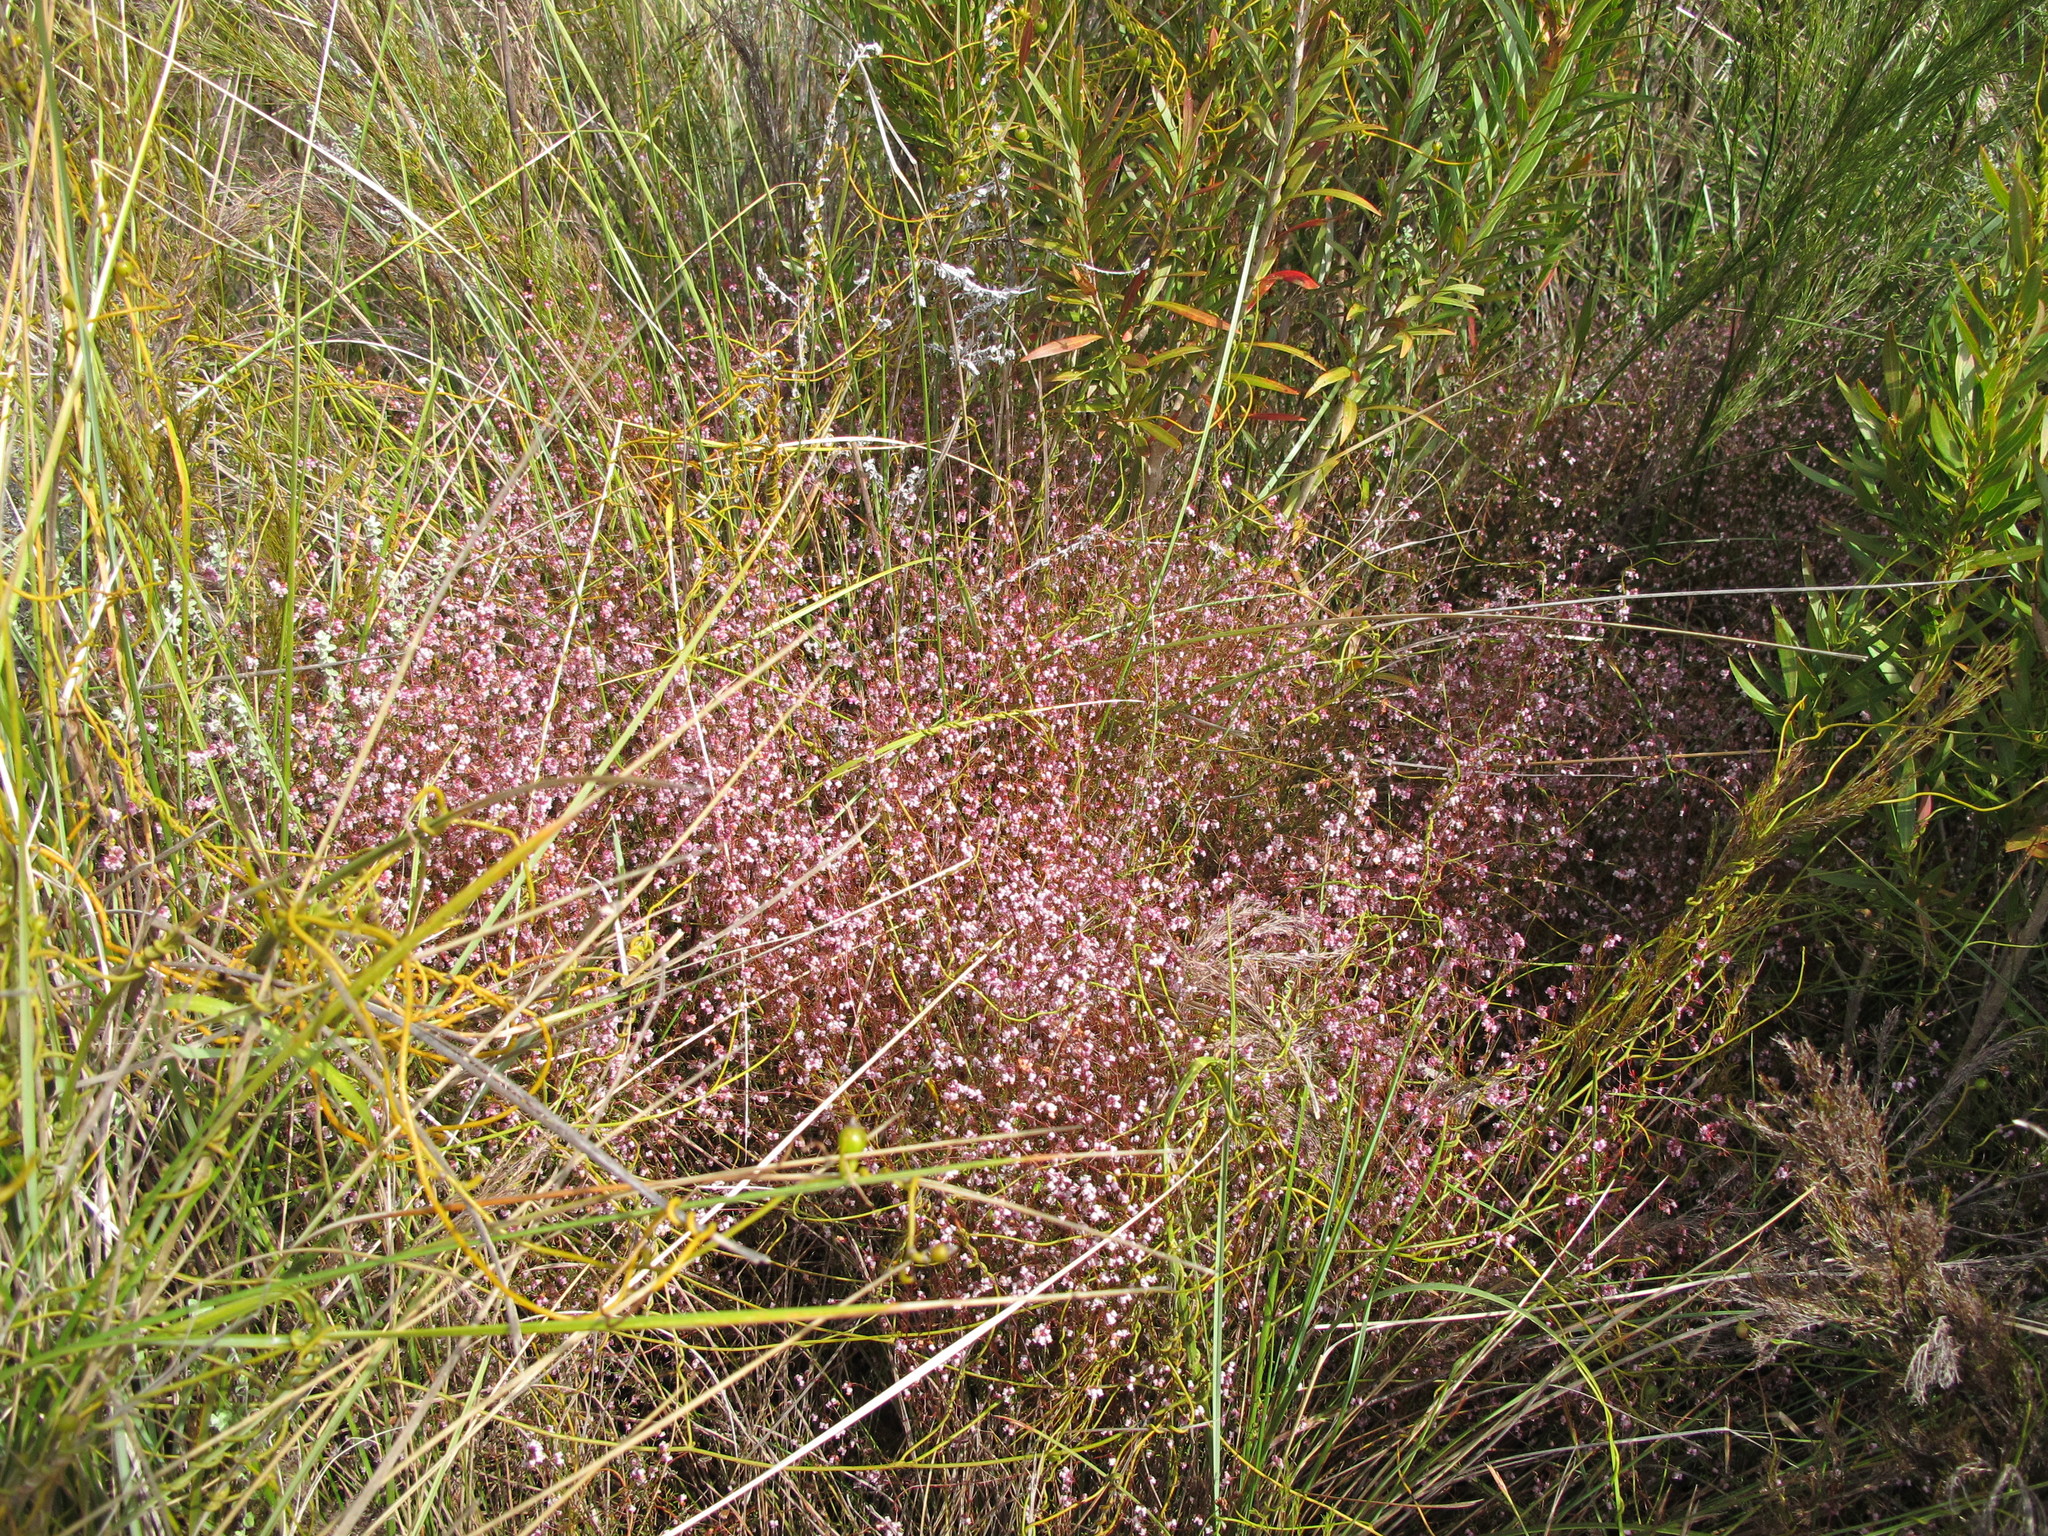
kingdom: Plantae
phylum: Tracheophyta
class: Magnoliopsida
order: Ericales
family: Ericaceae
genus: Erica
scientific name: Erica bakeri
